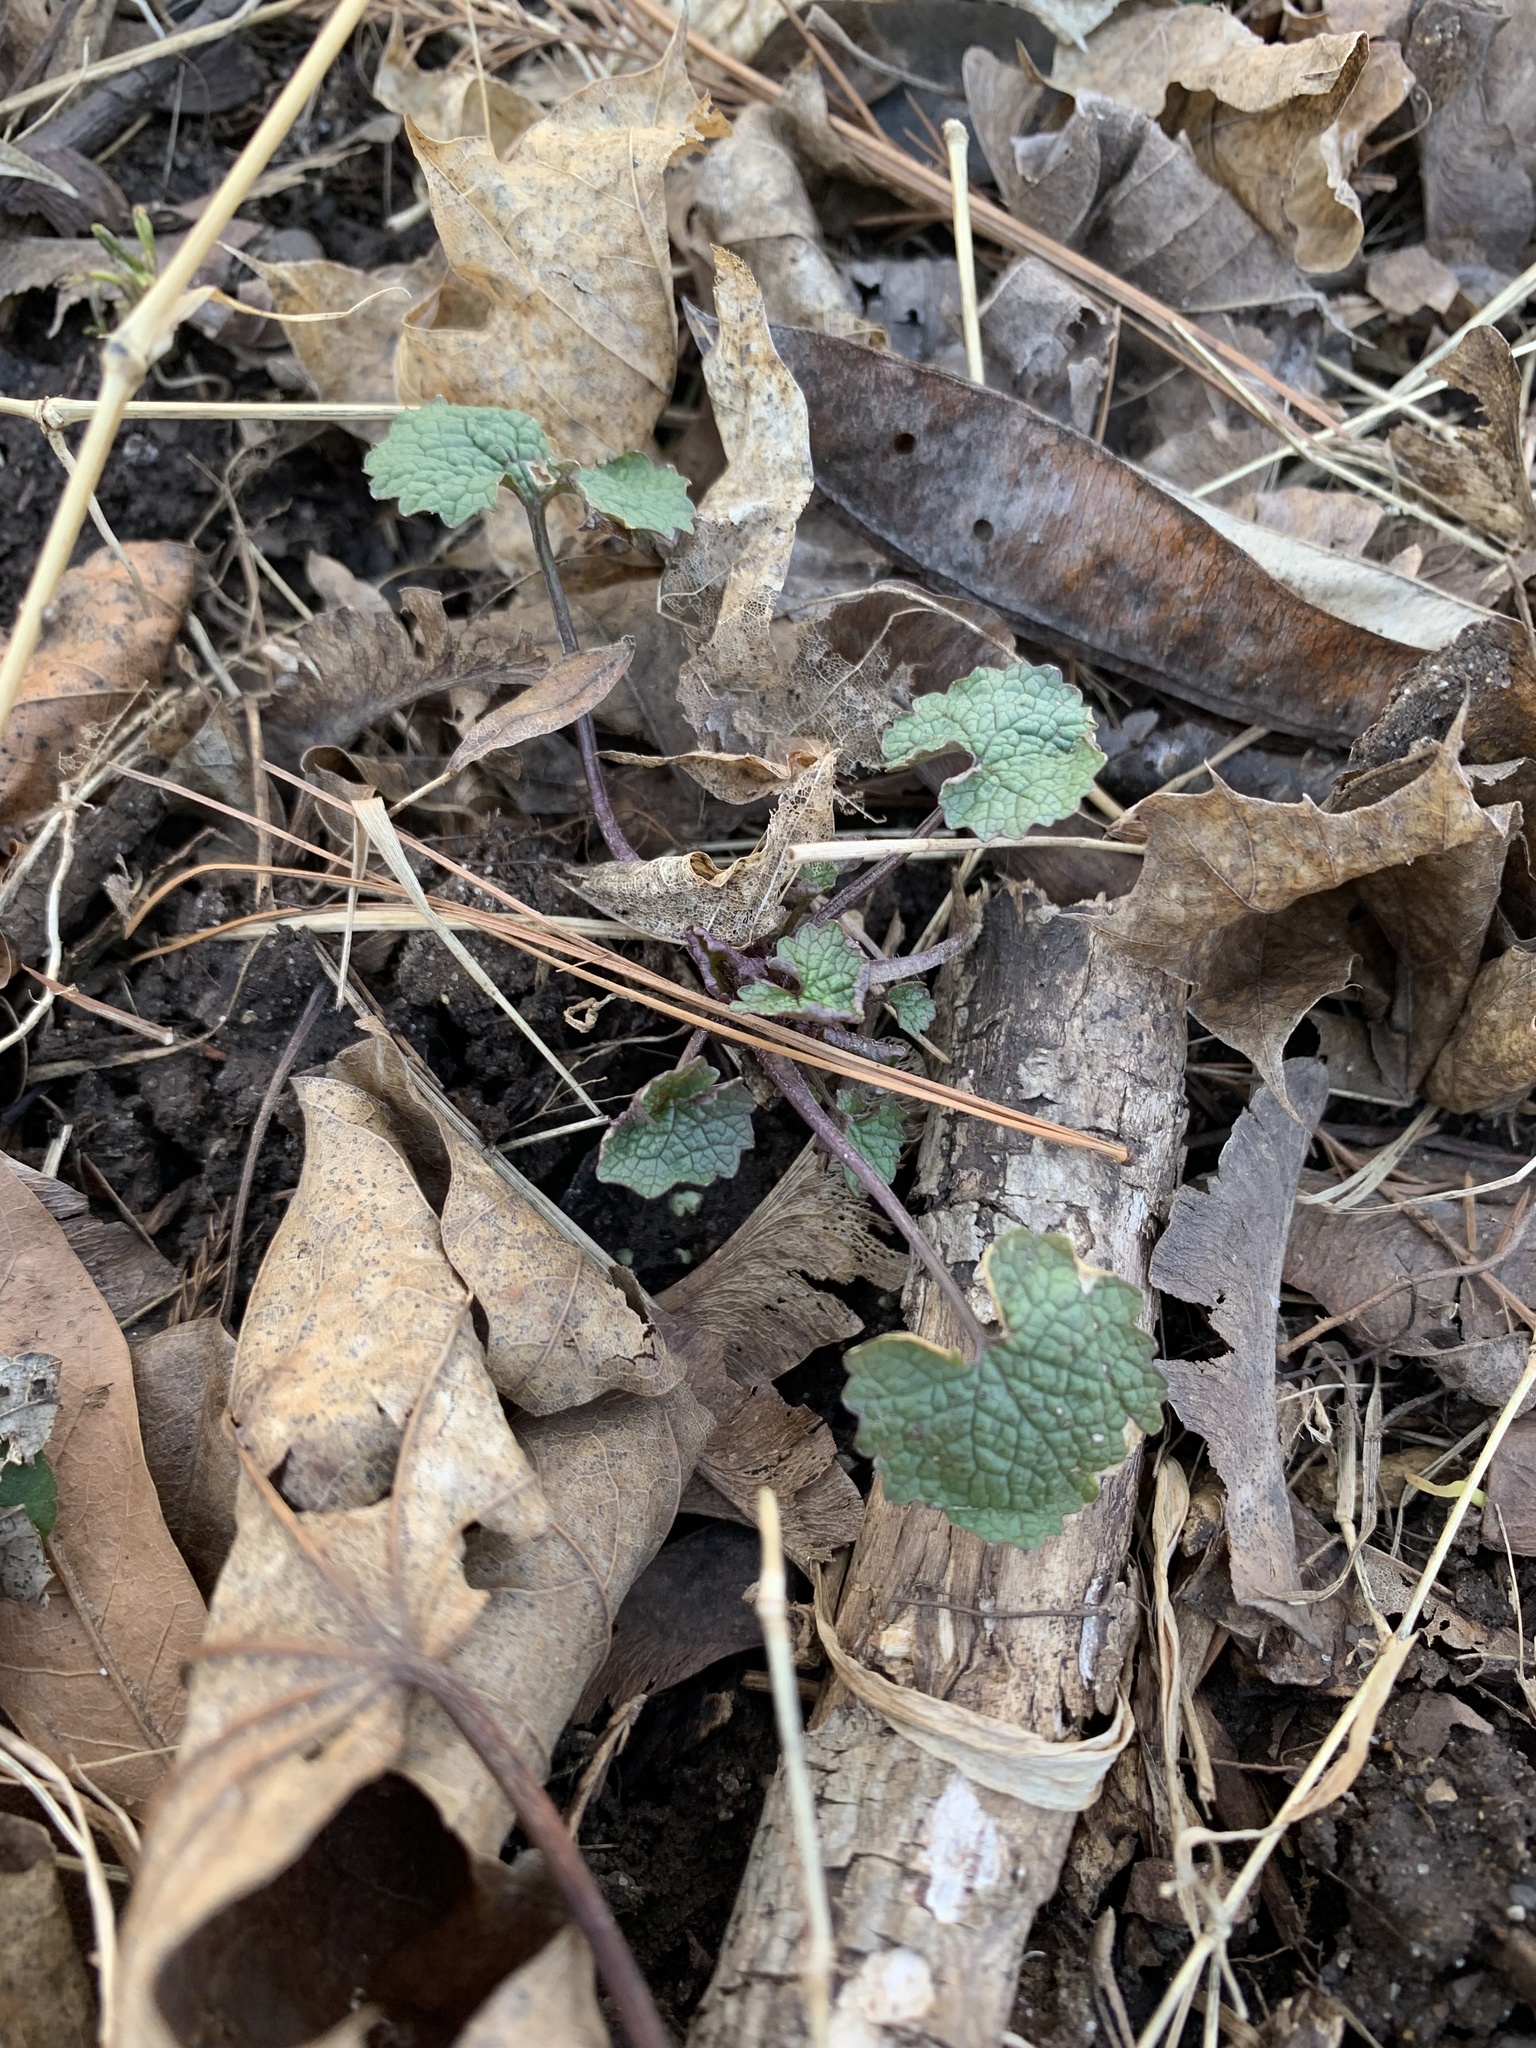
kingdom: Plantae
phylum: Tracheophyta
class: Magnoliopsida
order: Brassicales
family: Brassicaceae
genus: Alliaria
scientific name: Alliaria petiolata
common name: Garlic mustard
